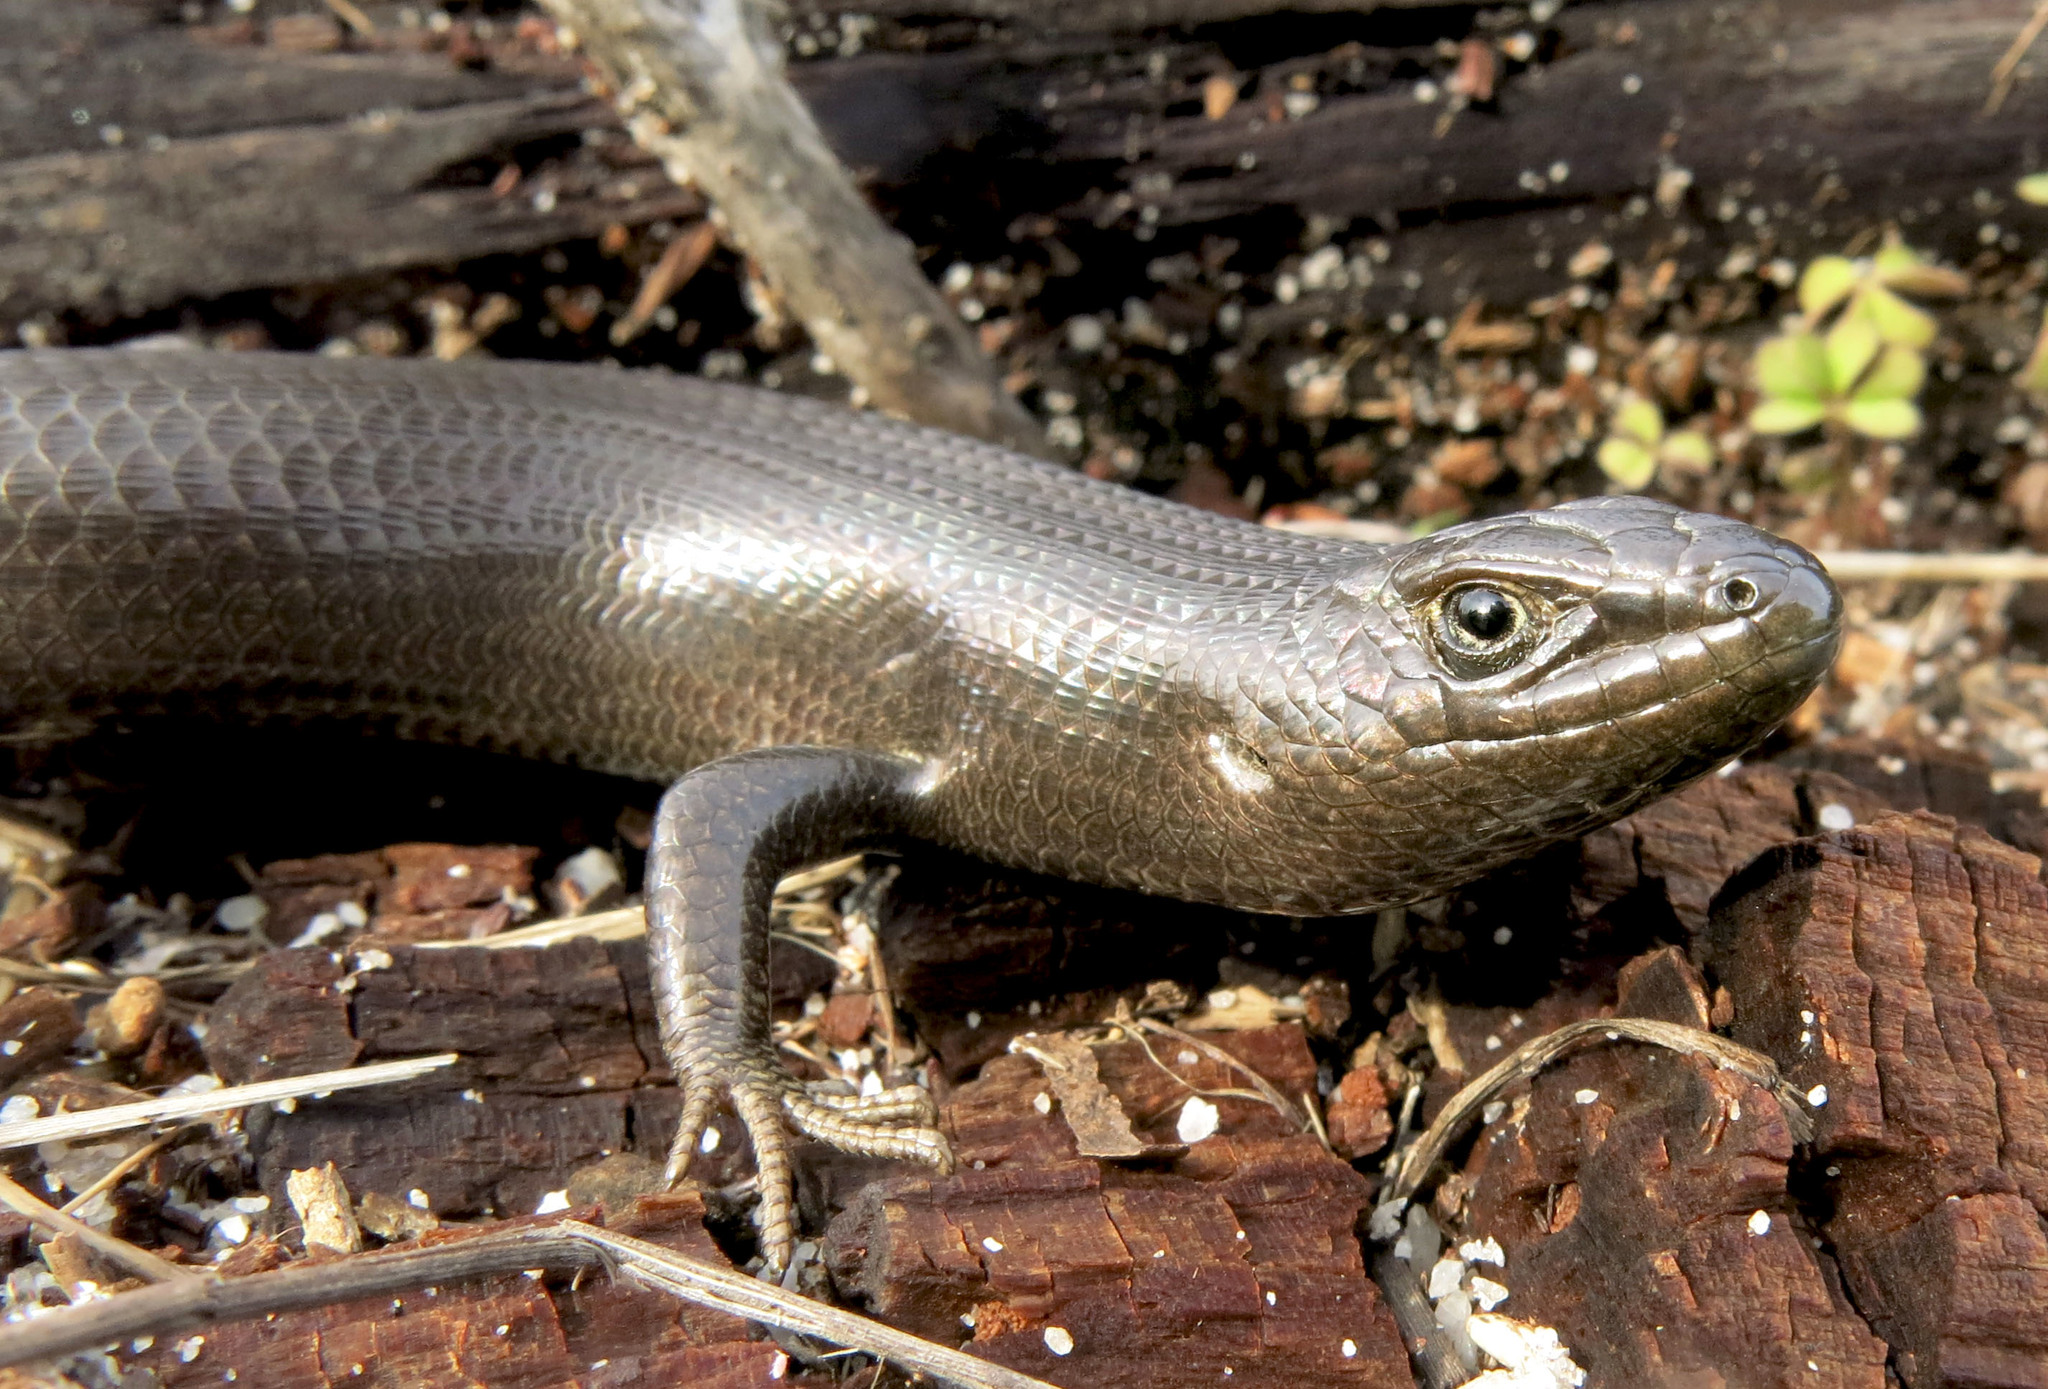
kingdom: Animalia
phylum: Chordata
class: Squamata
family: Scincidae
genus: Trachylepis
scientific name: Trachylepis capensis
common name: Cape skink
